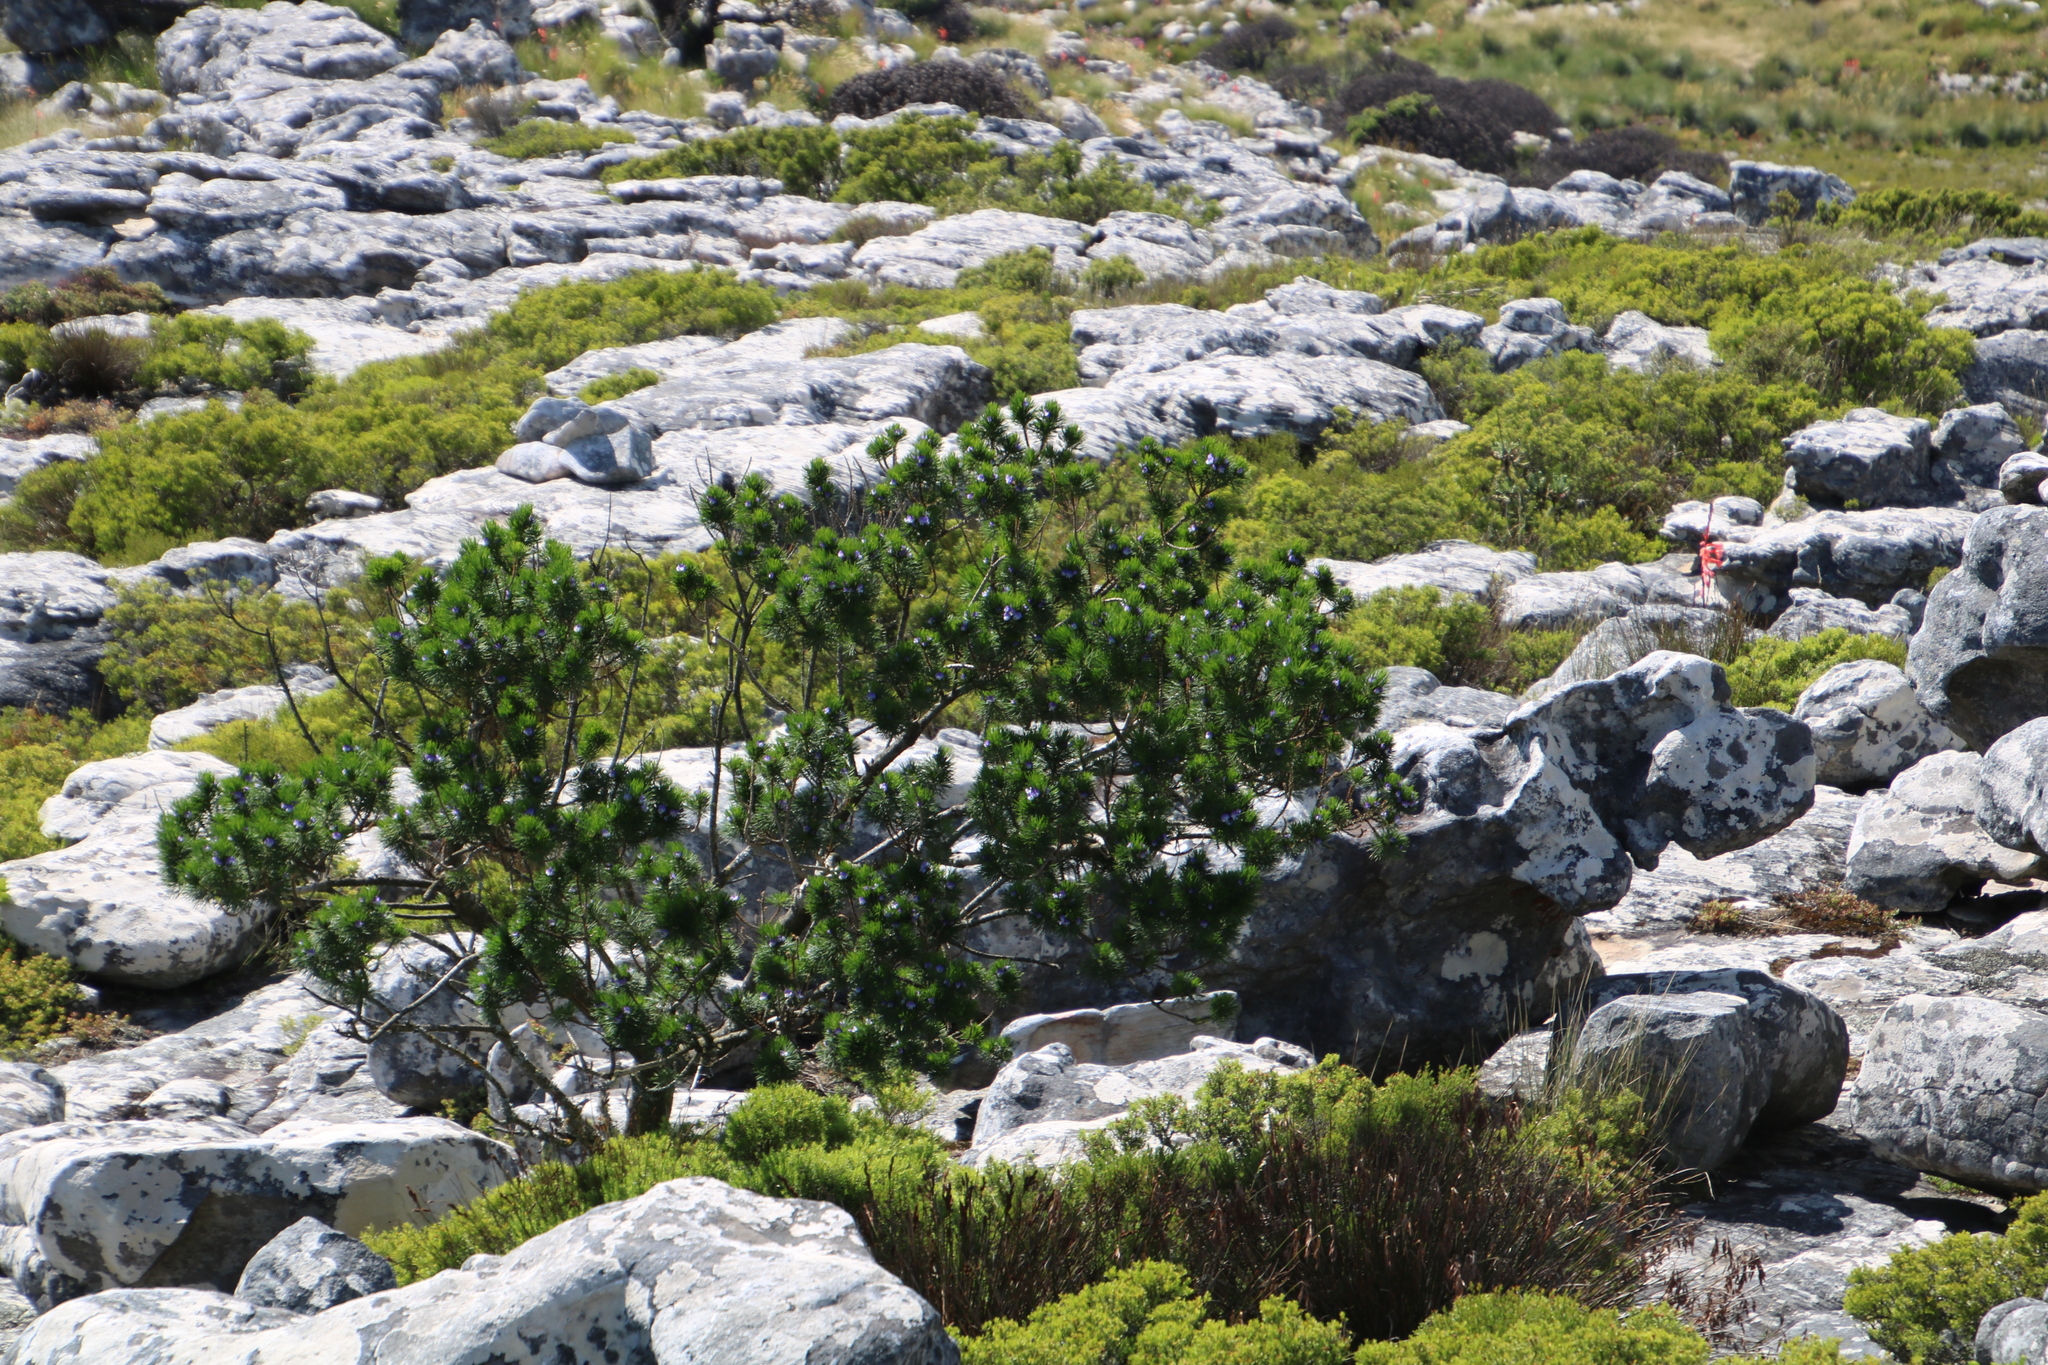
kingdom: Plantae
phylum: Tracheophyta
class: Magnoliopsida
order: Fabales
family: Fabaceae
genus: Psoralea
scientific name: Psoralea pinnata
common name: African scurfpea
